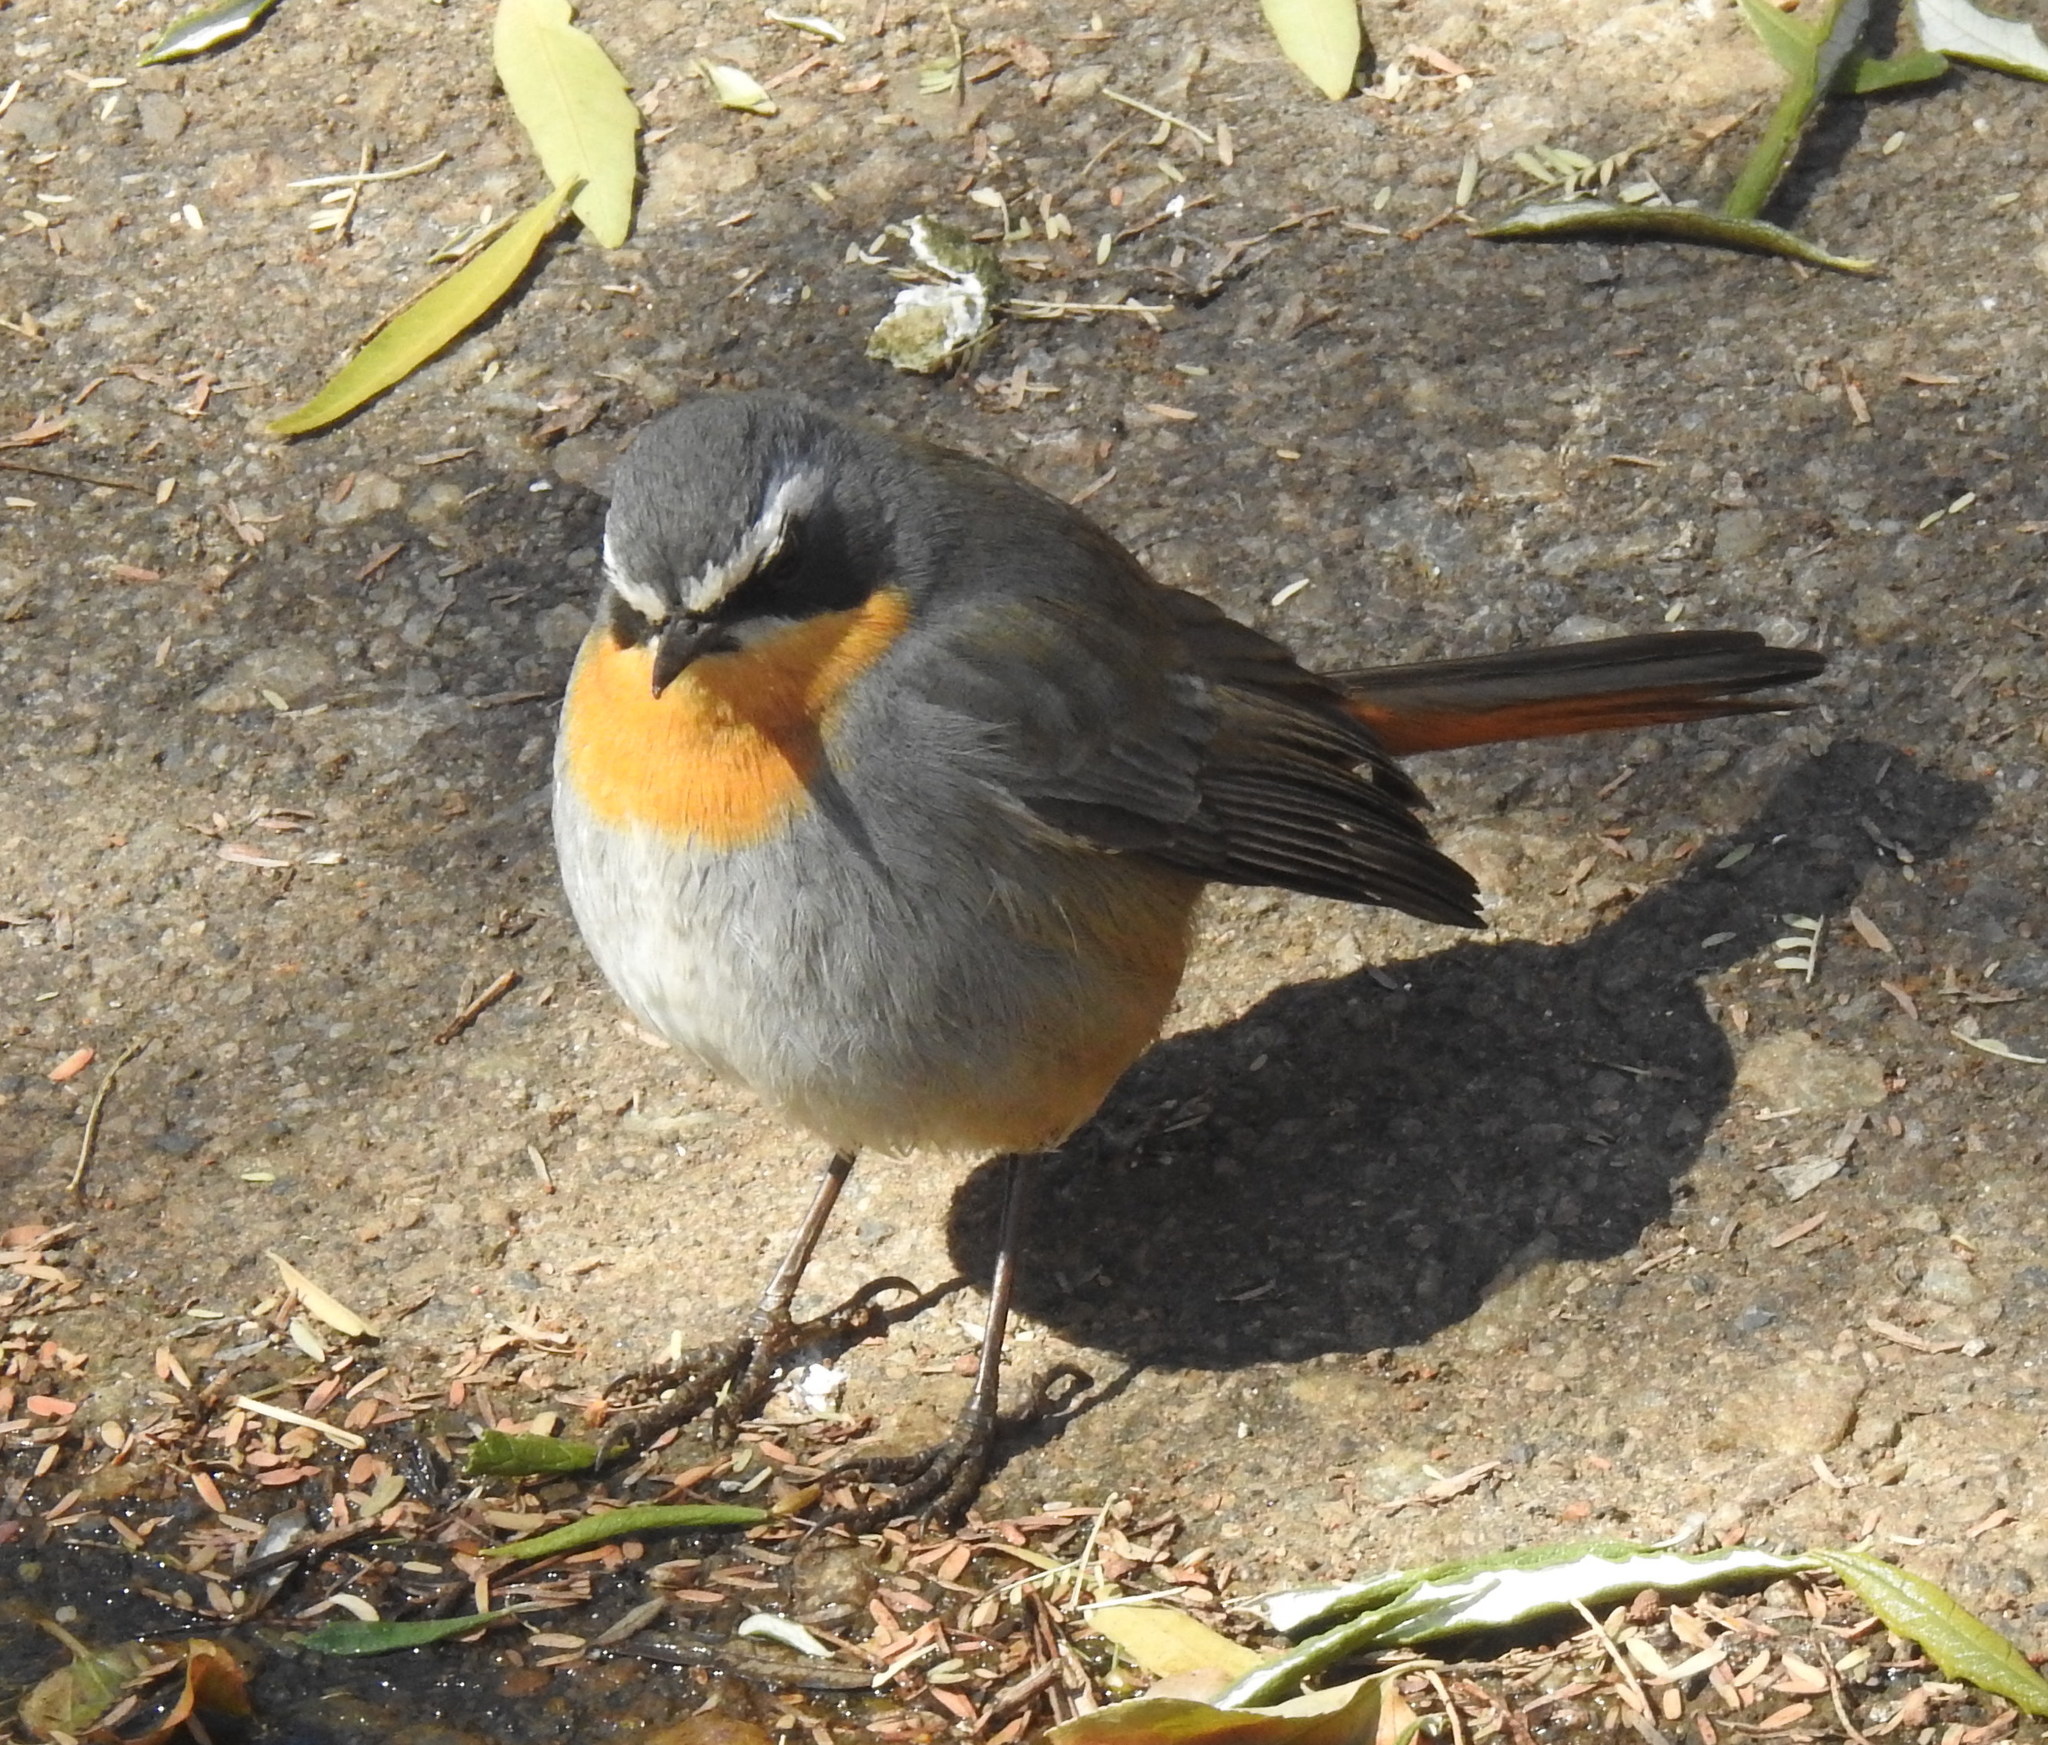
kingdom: Animalia
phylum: Chordata
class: Aves
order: Passeriformes
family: Muscicapidae
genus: Cossypha
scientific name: Cossypha caffra
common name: Cape robin-chat
